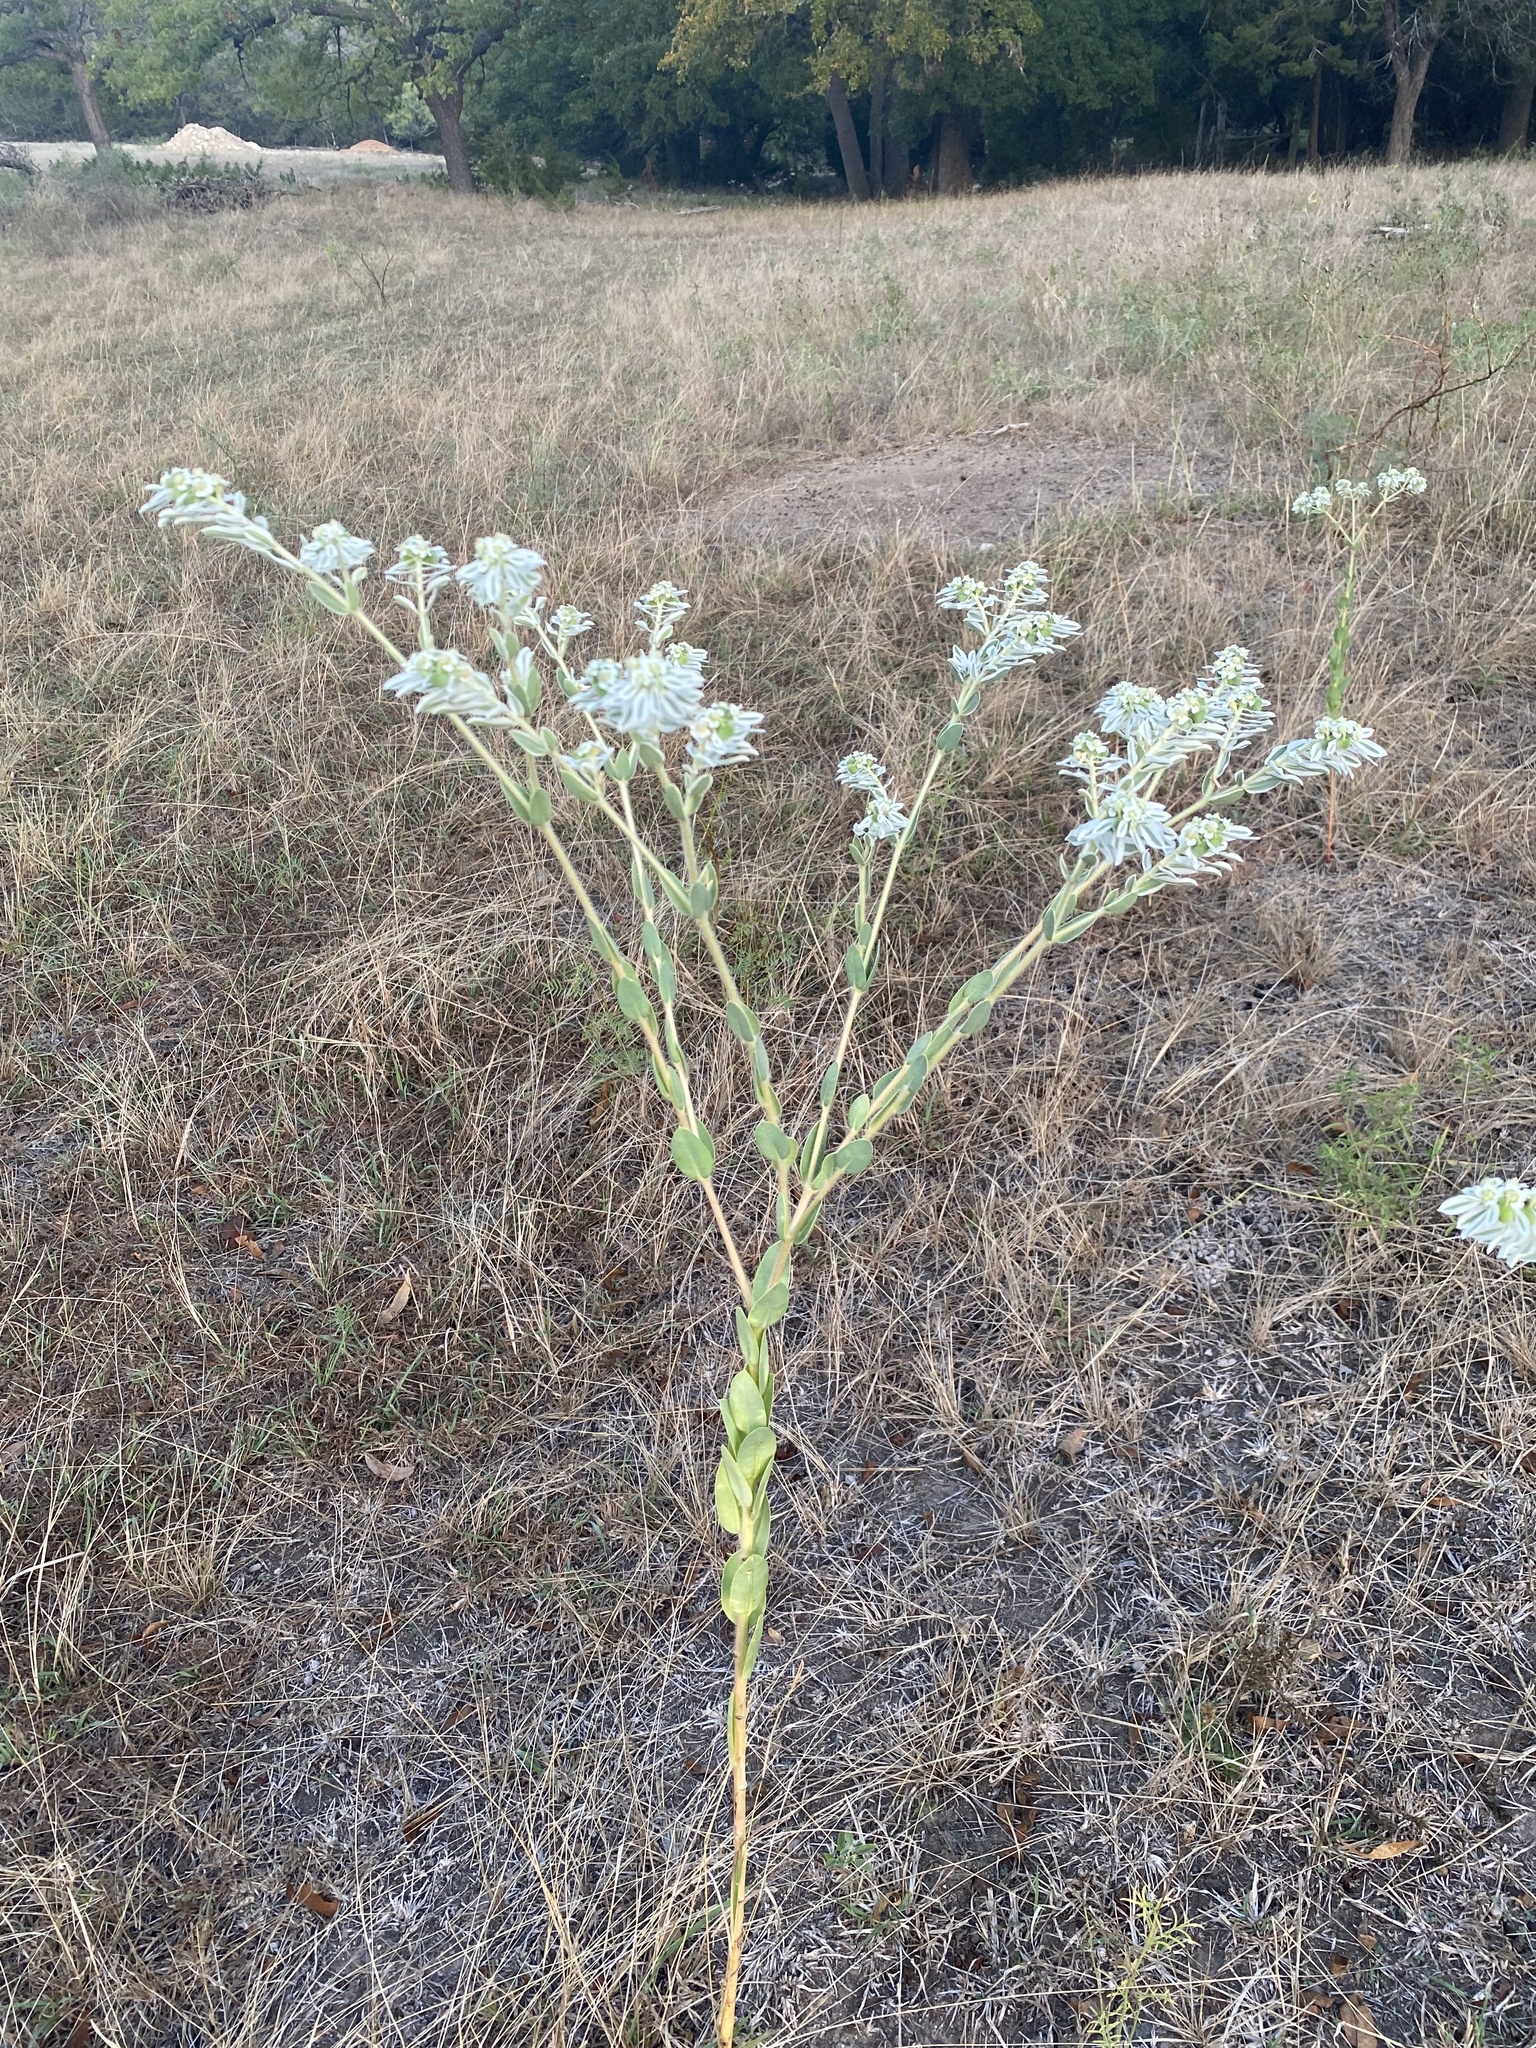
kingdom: Plantae
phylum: Tracheophyta
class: Magnoliopsida
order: Malpighiales
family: Euphorbiaceae
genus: Euphorbia
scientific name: Euphorbia marginata
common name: Ghostweed
